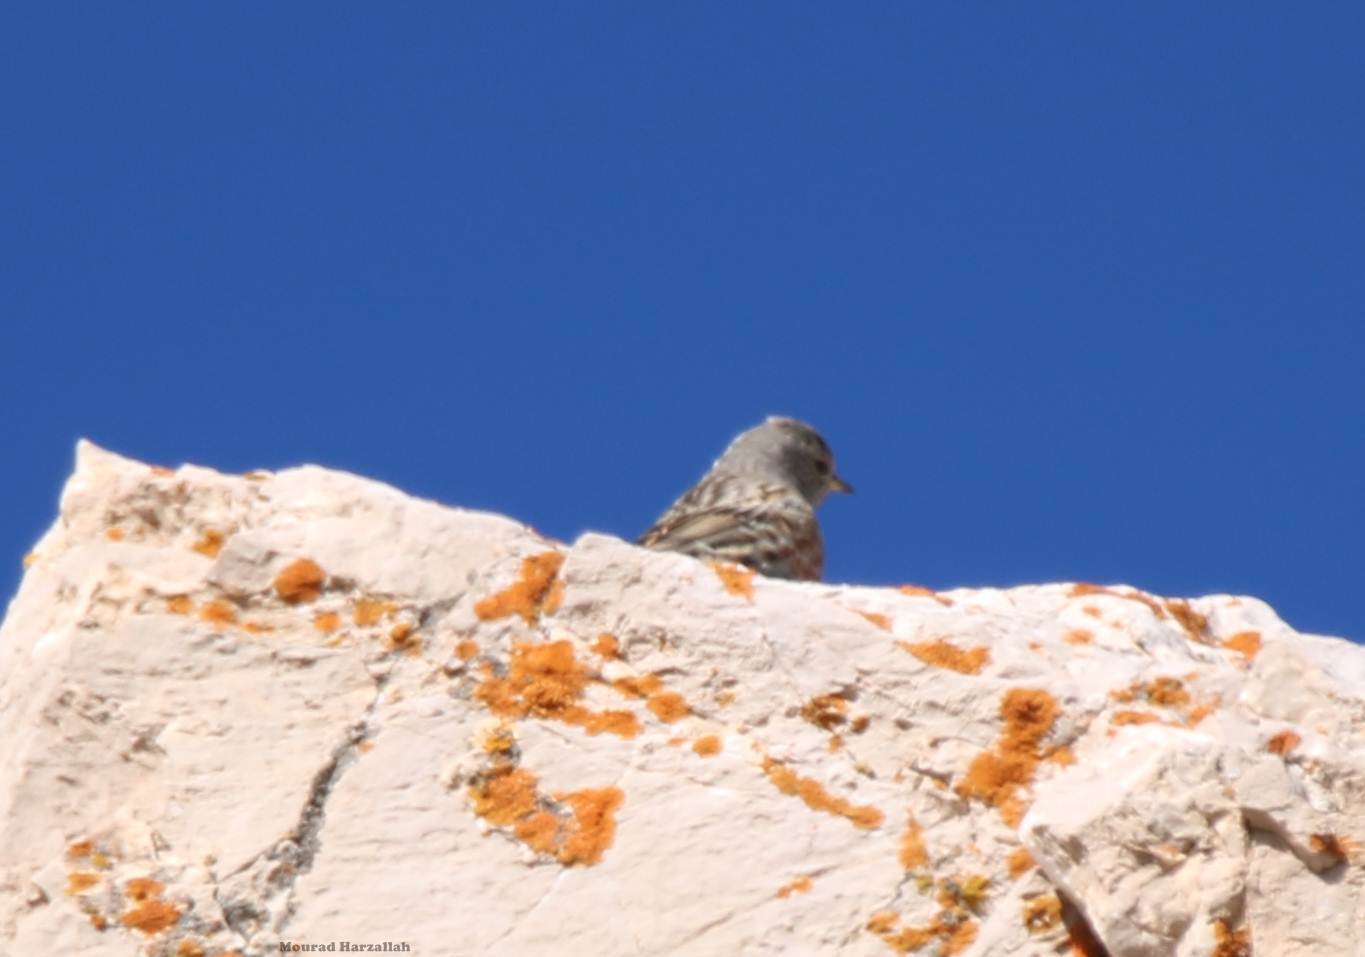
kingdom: Animalia
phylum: Chordata
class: Aves
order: Passeriformes
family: Prunellidae
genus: Prunella
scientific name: Prunella collaris
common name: Alpine accentor
